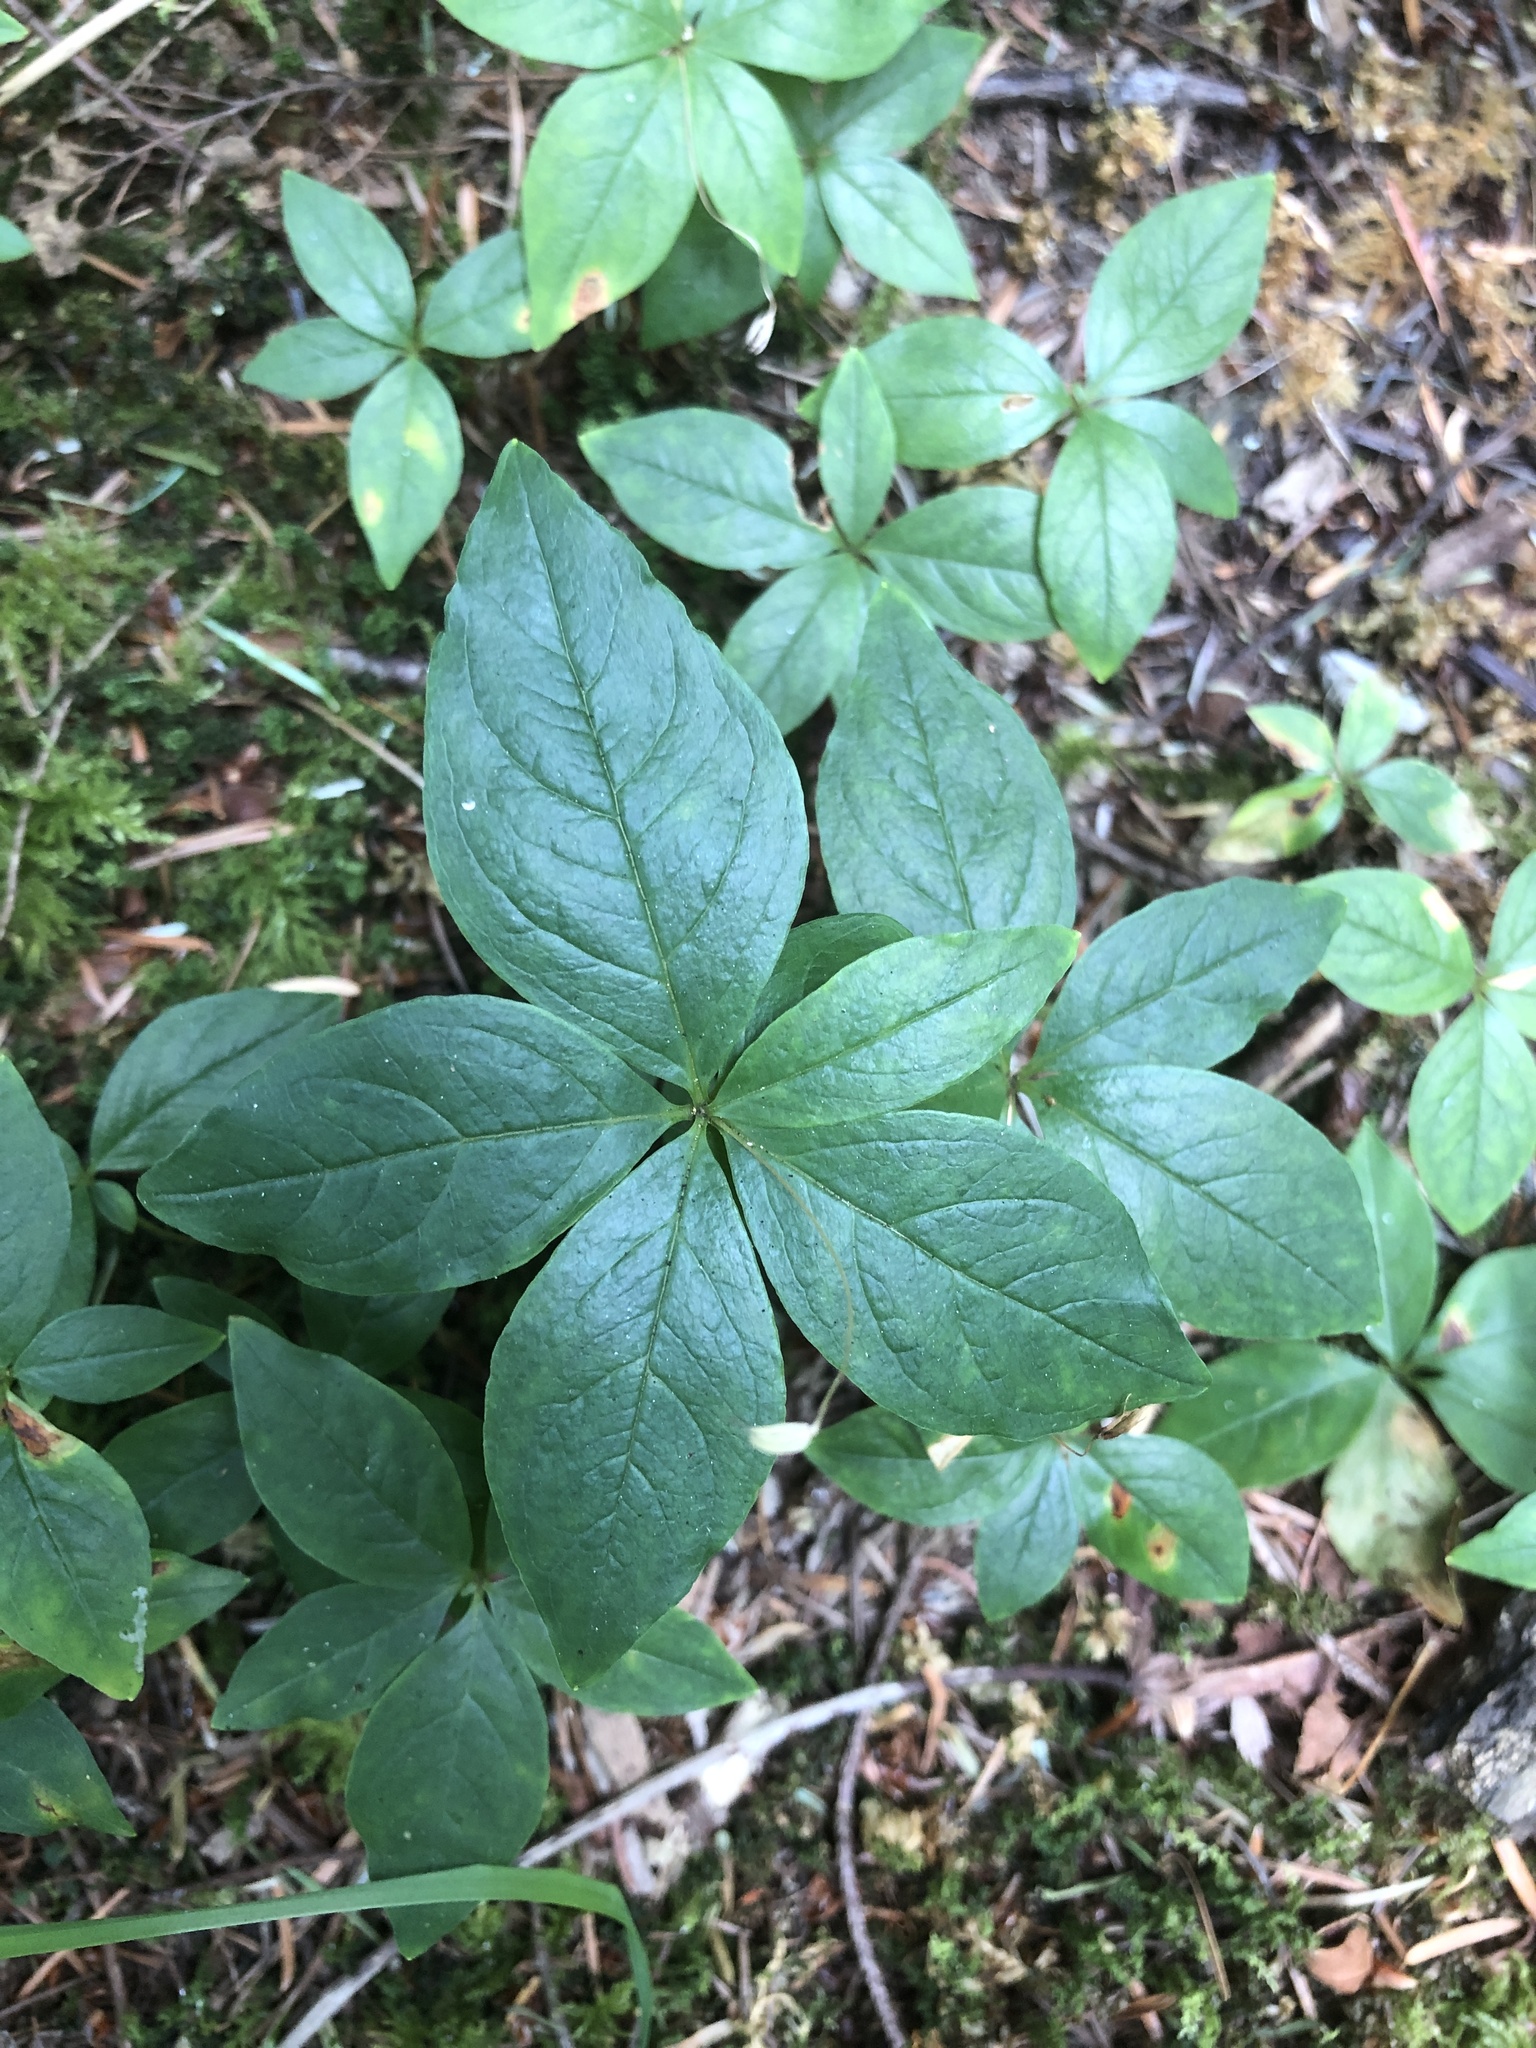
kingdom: Plantae
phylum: Tracheophyta
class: Magnoliopsida
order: Ericales
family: Primulaceae
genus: Lysimachia
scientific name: Lysimachia latifolia
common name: Pacific starflower
